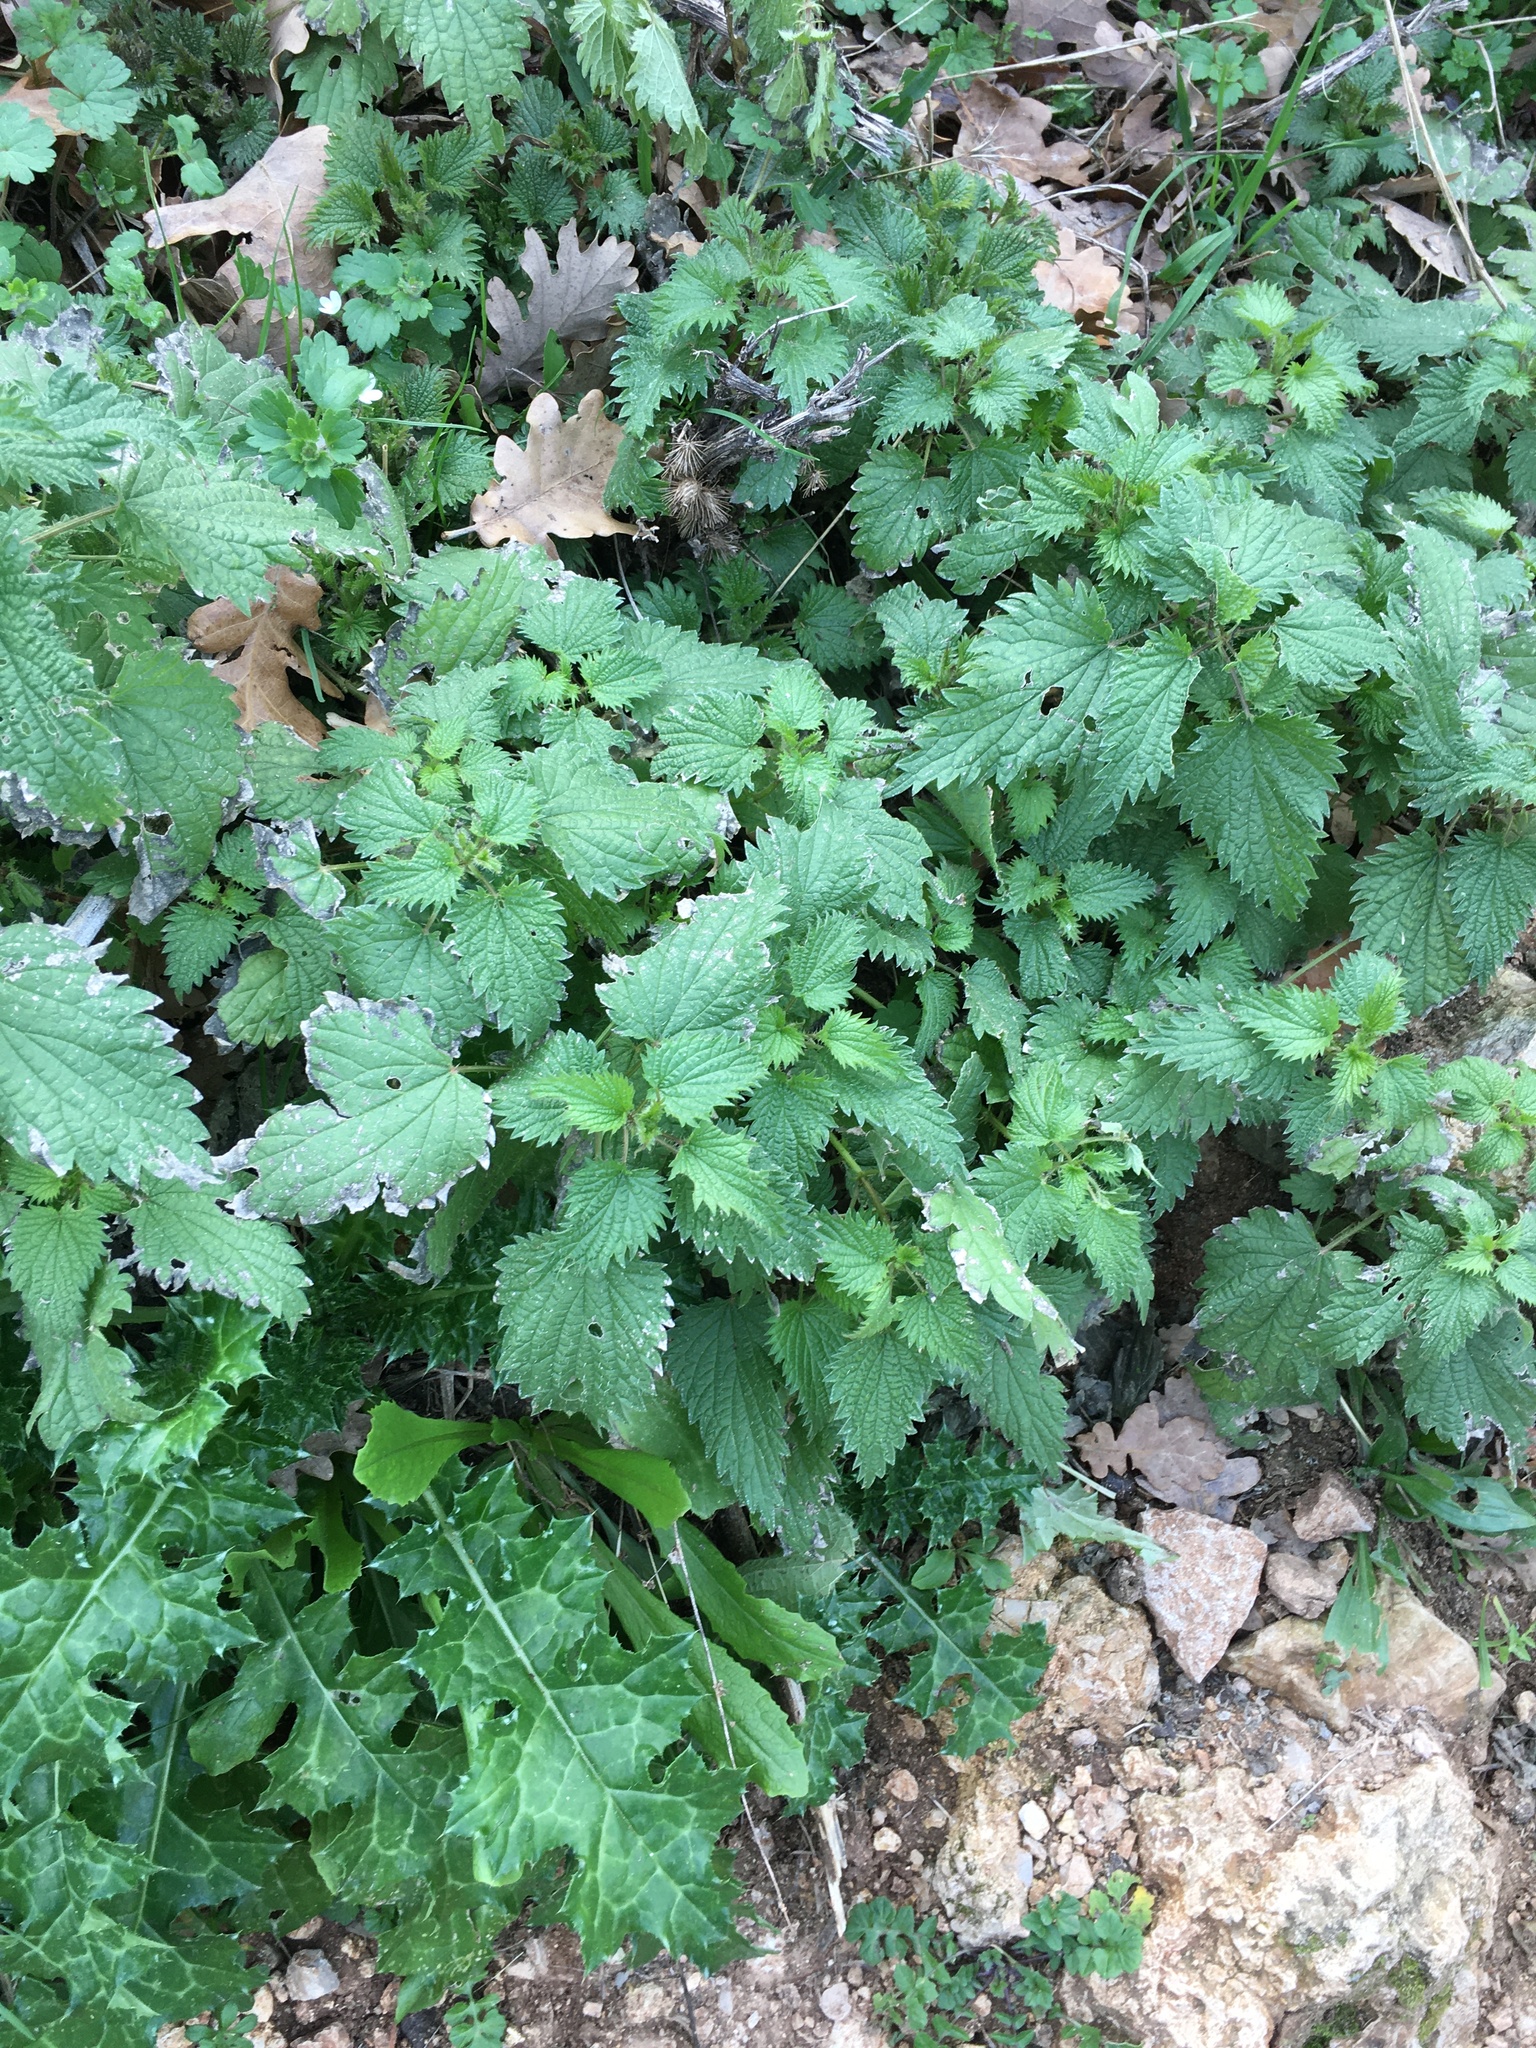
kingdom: Plantae
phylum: Tracheophyta
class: Magnoliopsida
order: Rosales
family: Urticaceae
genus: Urtica
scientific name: Urtica dioica
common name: Common nettle
